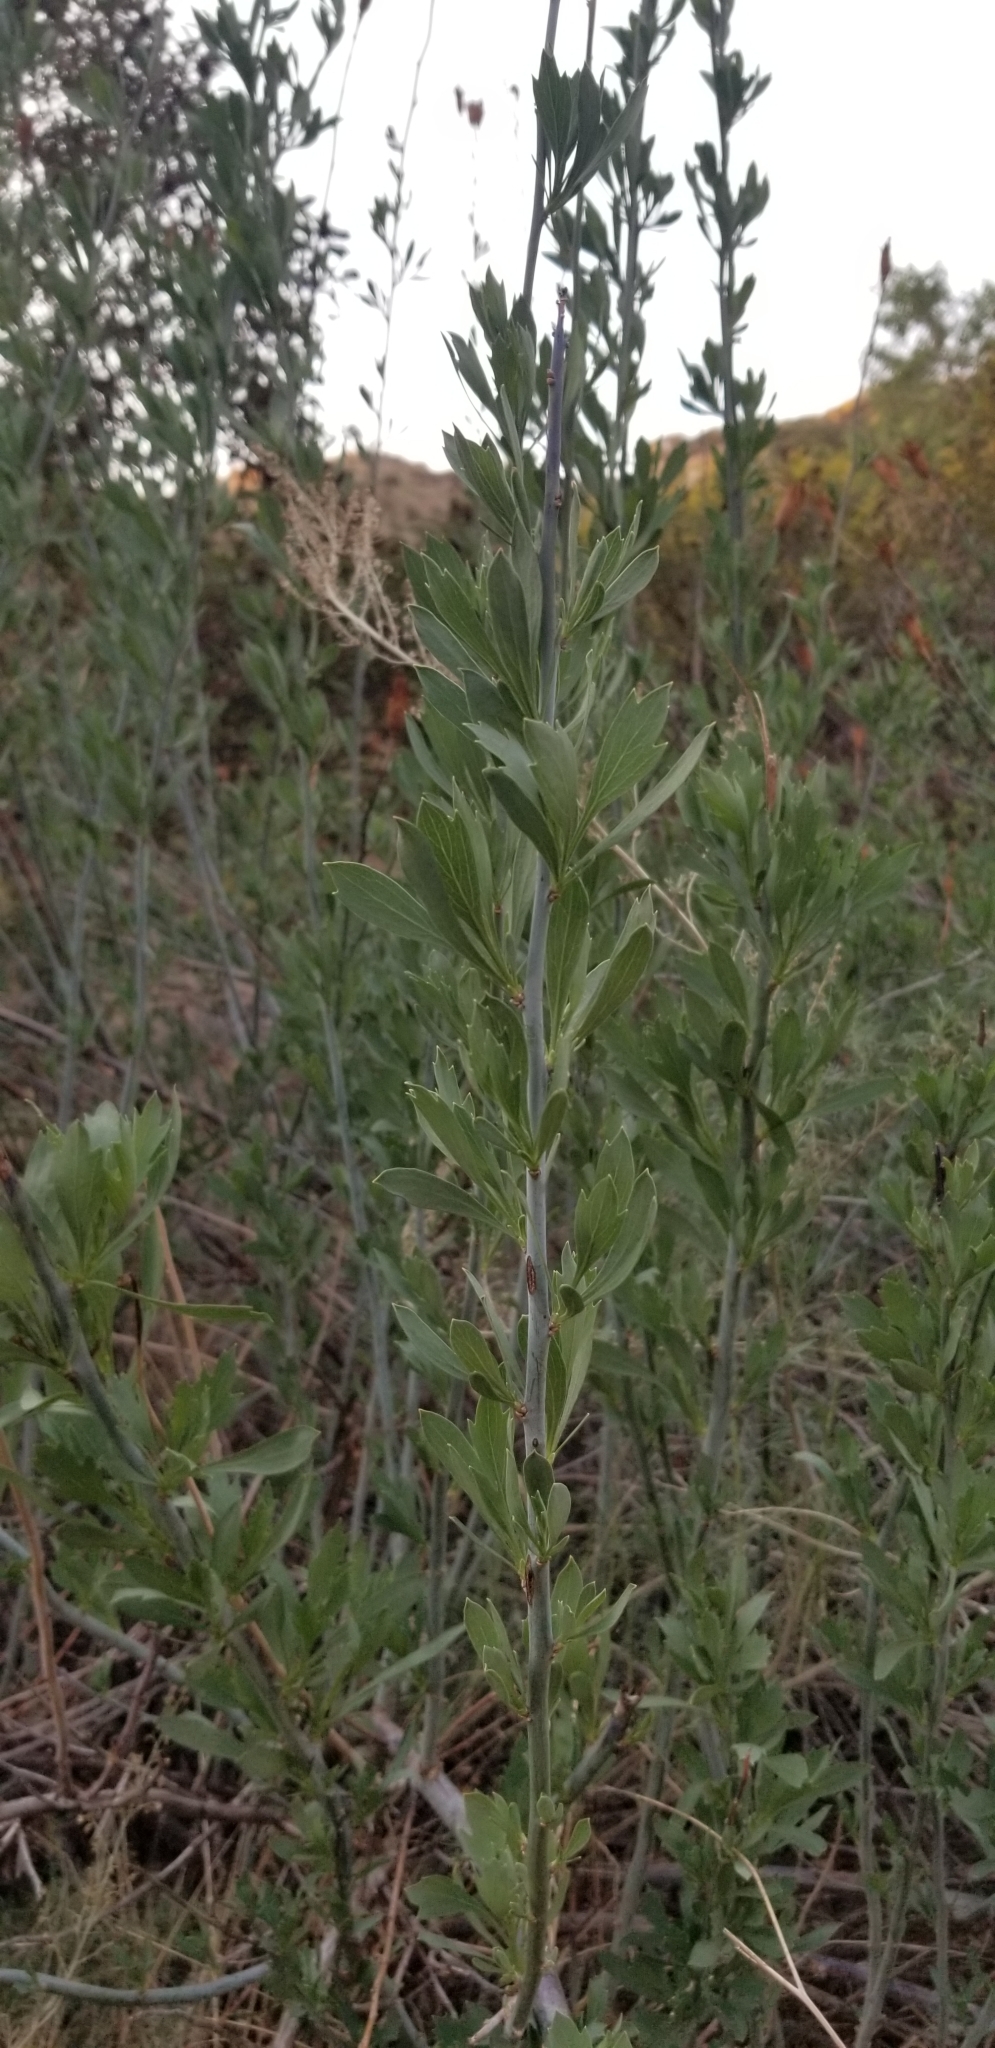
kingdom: Plantae
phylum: Tracheophyta
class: Magnoliopsida
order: Ranunculales
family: Papaveraceae
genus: Romneya
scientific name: Romneya coulteri
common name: California tree-poppy
